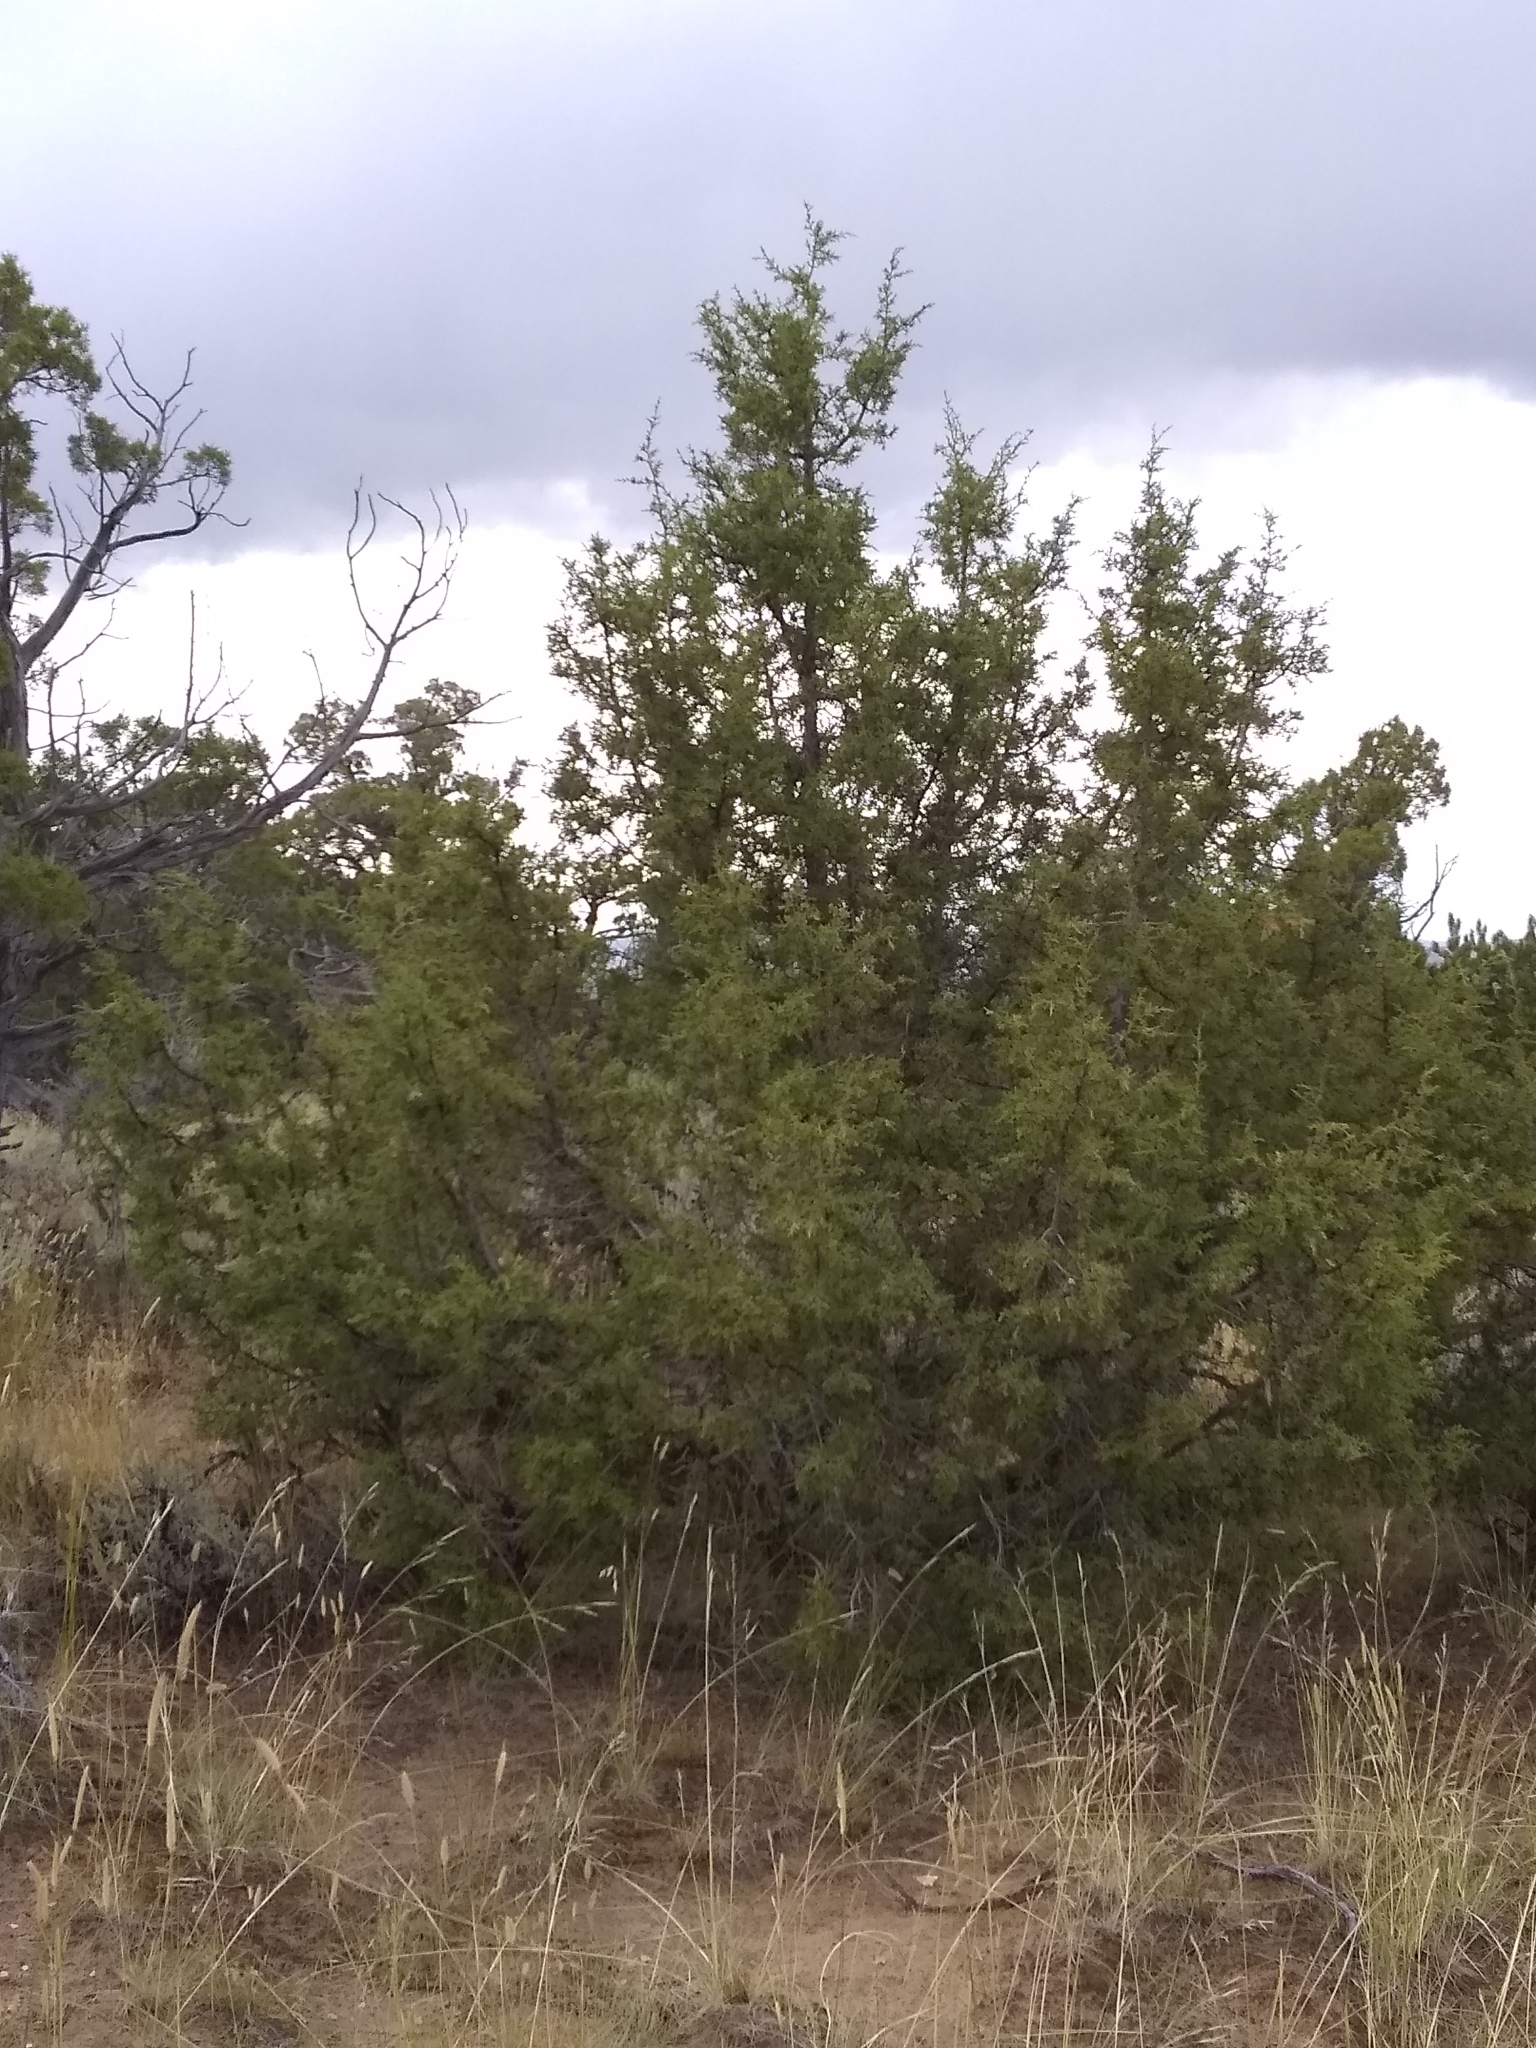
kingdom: Plantae
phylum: Tracheophyta
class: Pinopsida
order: Pinales
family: Cupressaceae
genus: Juniperus
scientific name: Juniperus osteosperma
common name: Utah juniper
